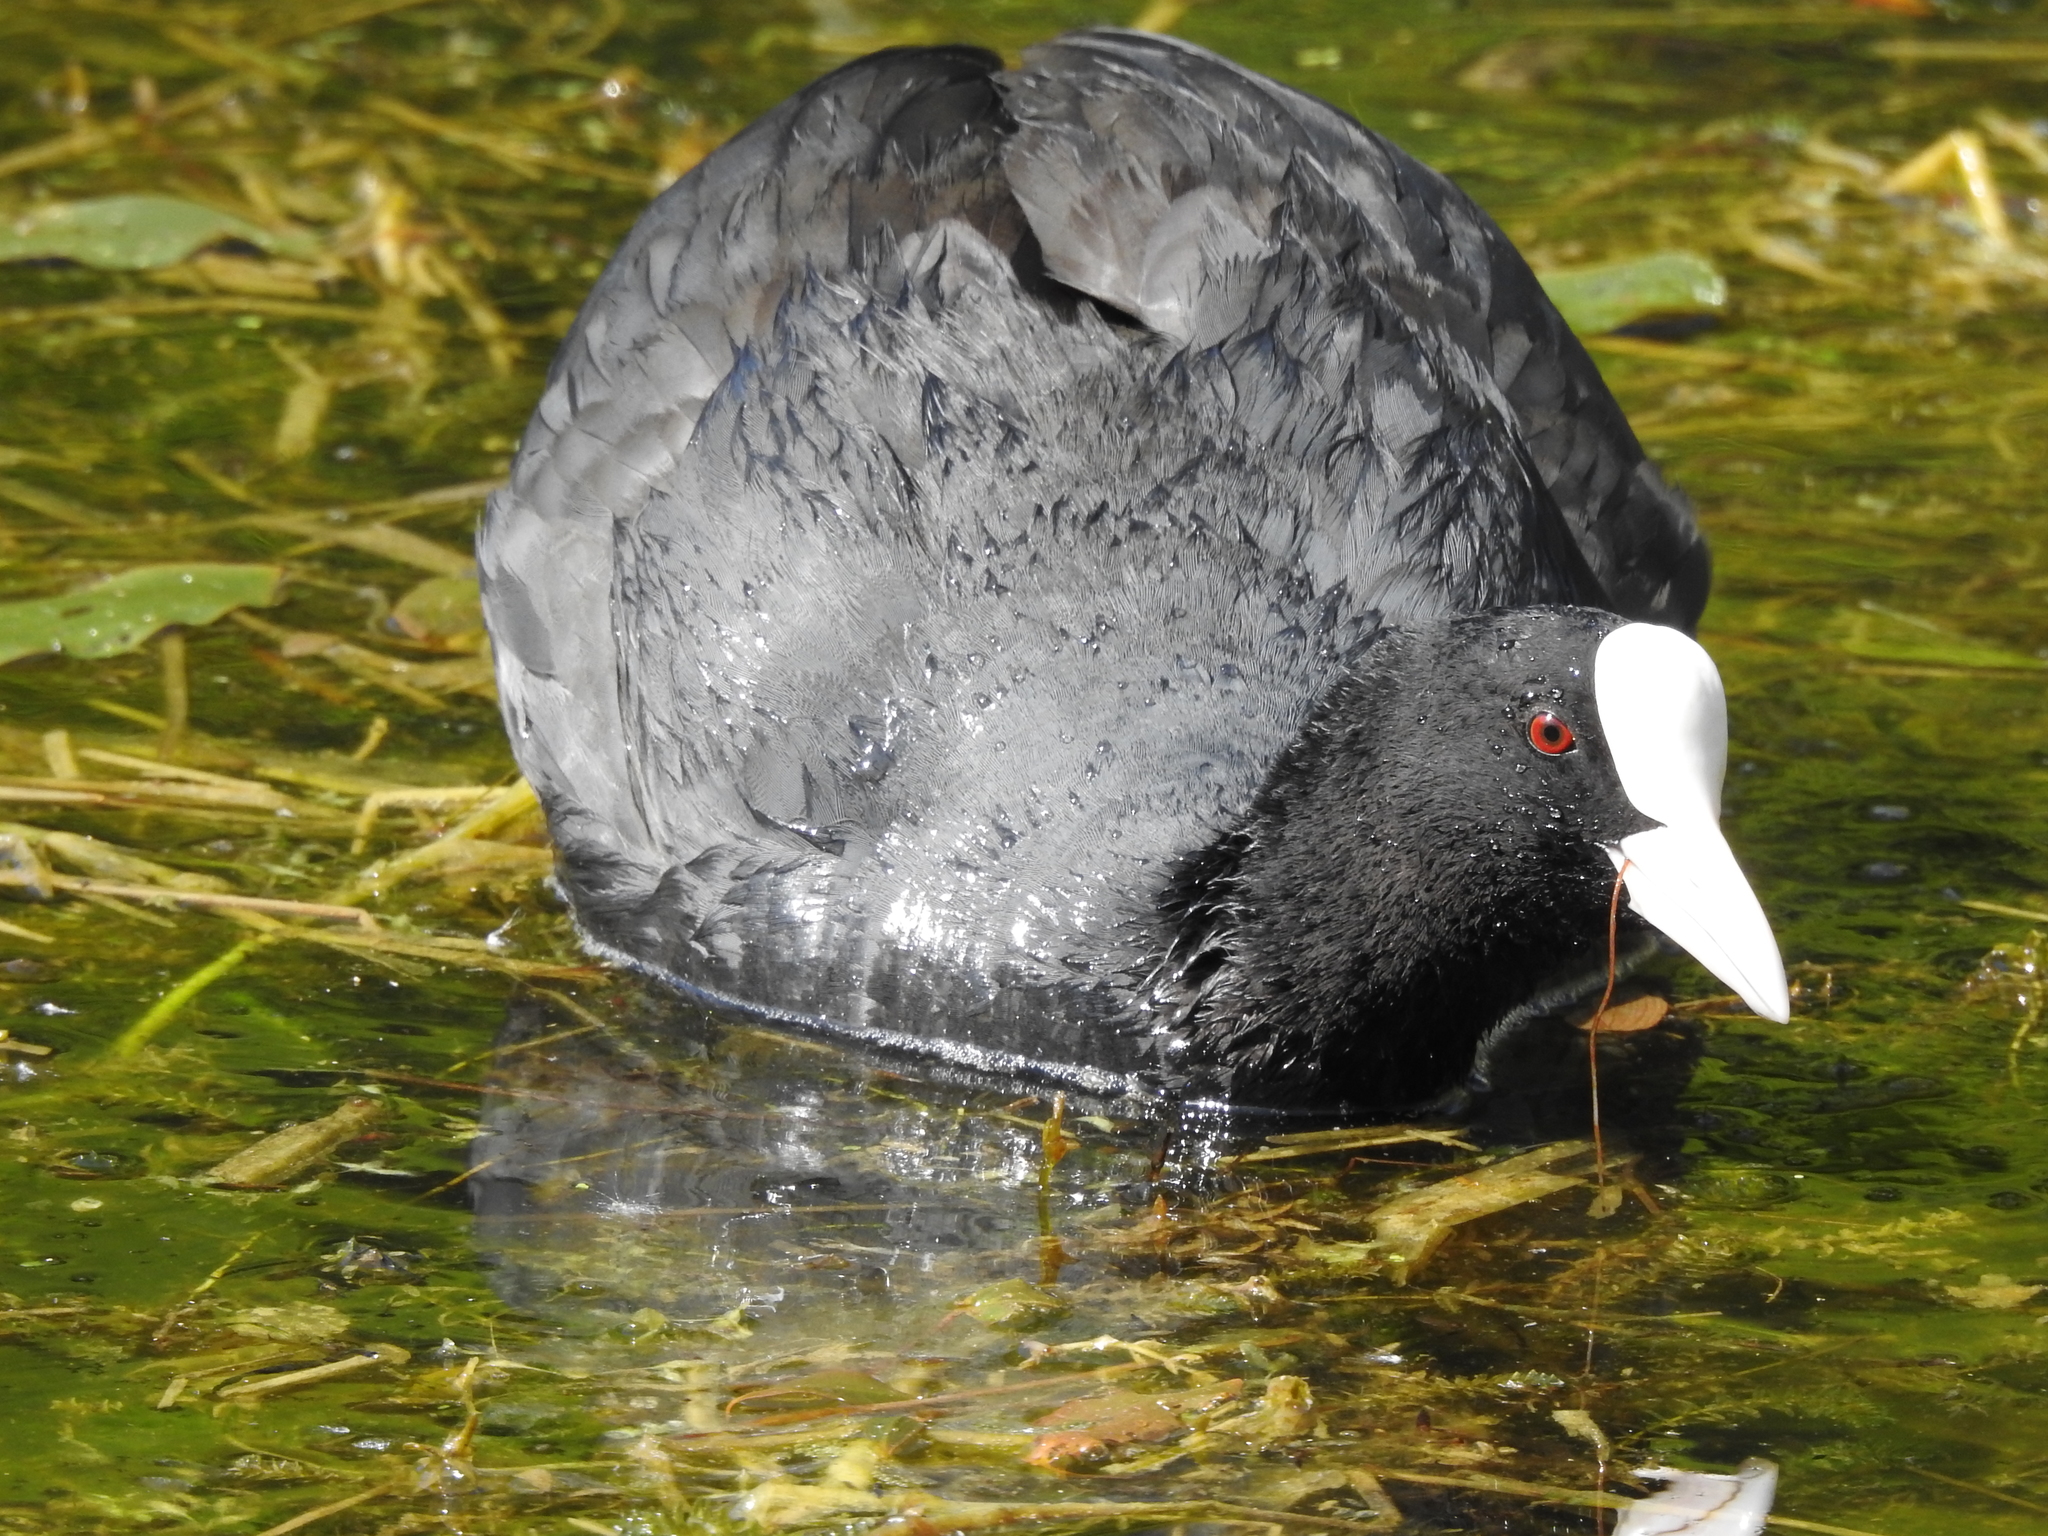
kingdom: Animalia
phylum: Chordata
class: Aves
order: Gruiformes
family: Rallidae
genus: Fulica
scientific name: Fulica atra
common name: Eurasian coot
